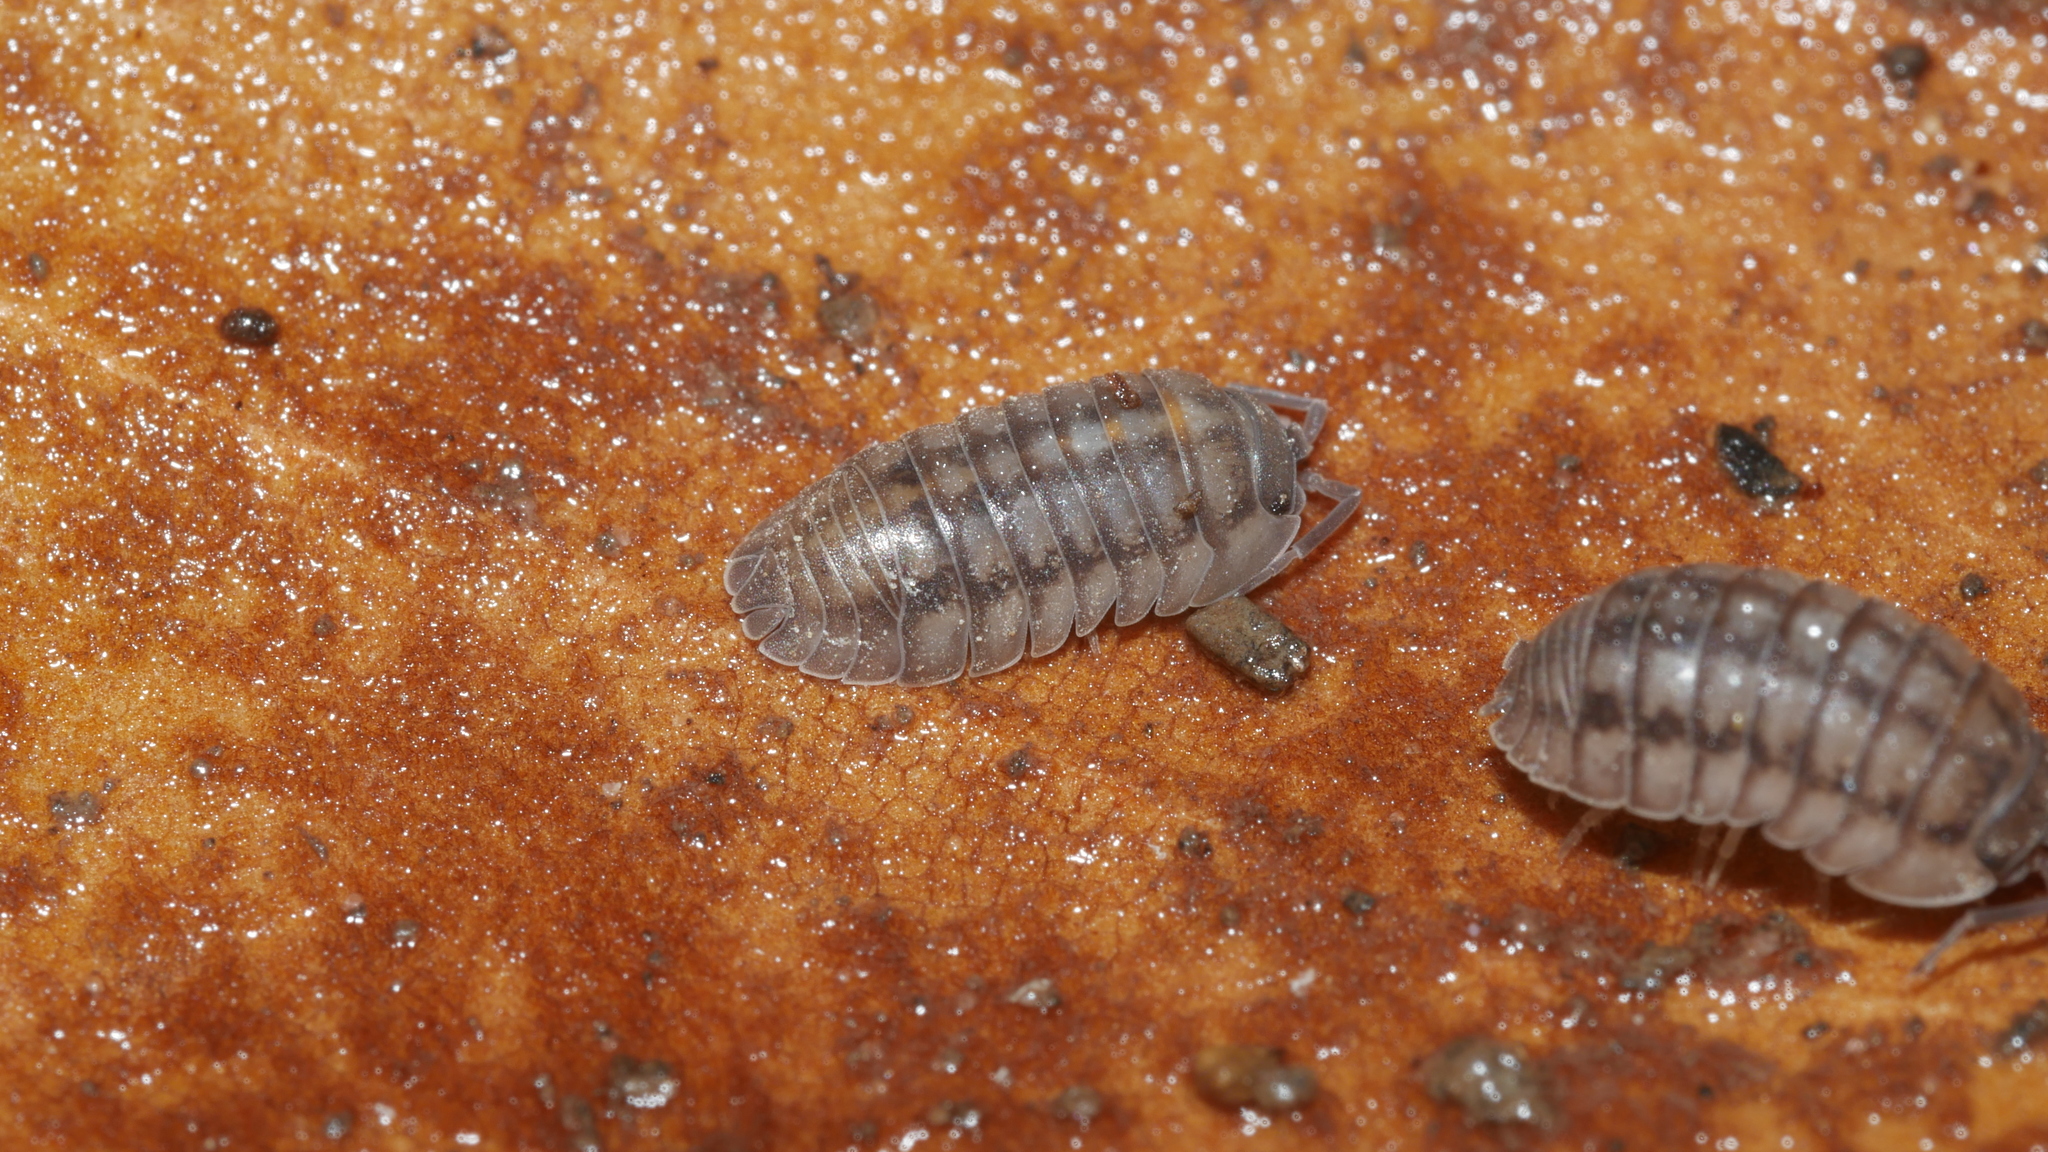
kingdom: Animalia
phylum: Arthropoda
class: Malacostraca
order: Isopoda
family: Armadillidiidae
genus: Armadillidium
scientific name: Armadillidium nasatum
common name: Isopod
